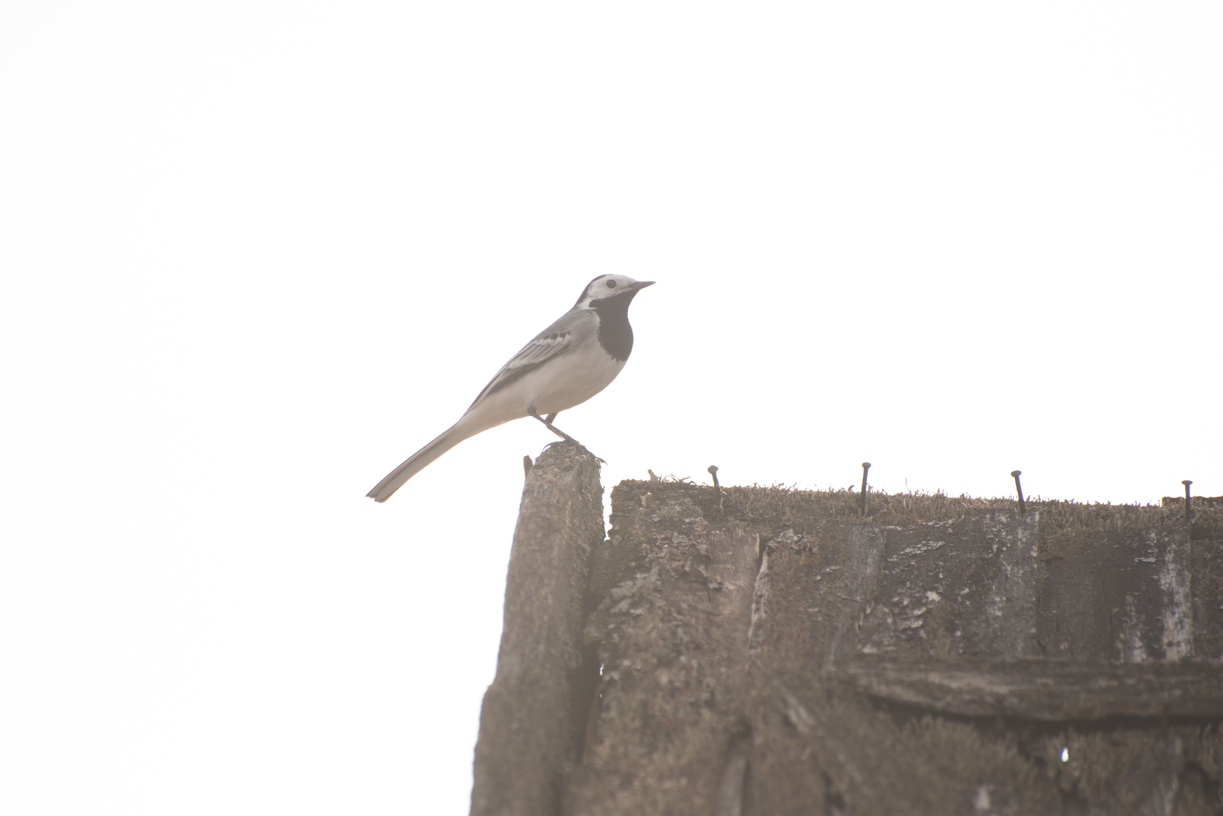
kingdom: Animalia
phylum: Chordata
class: Aves
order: Passeriformes
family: Motacillidae
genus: Motacilla
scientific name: Motacilla alba
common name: White wagtail
